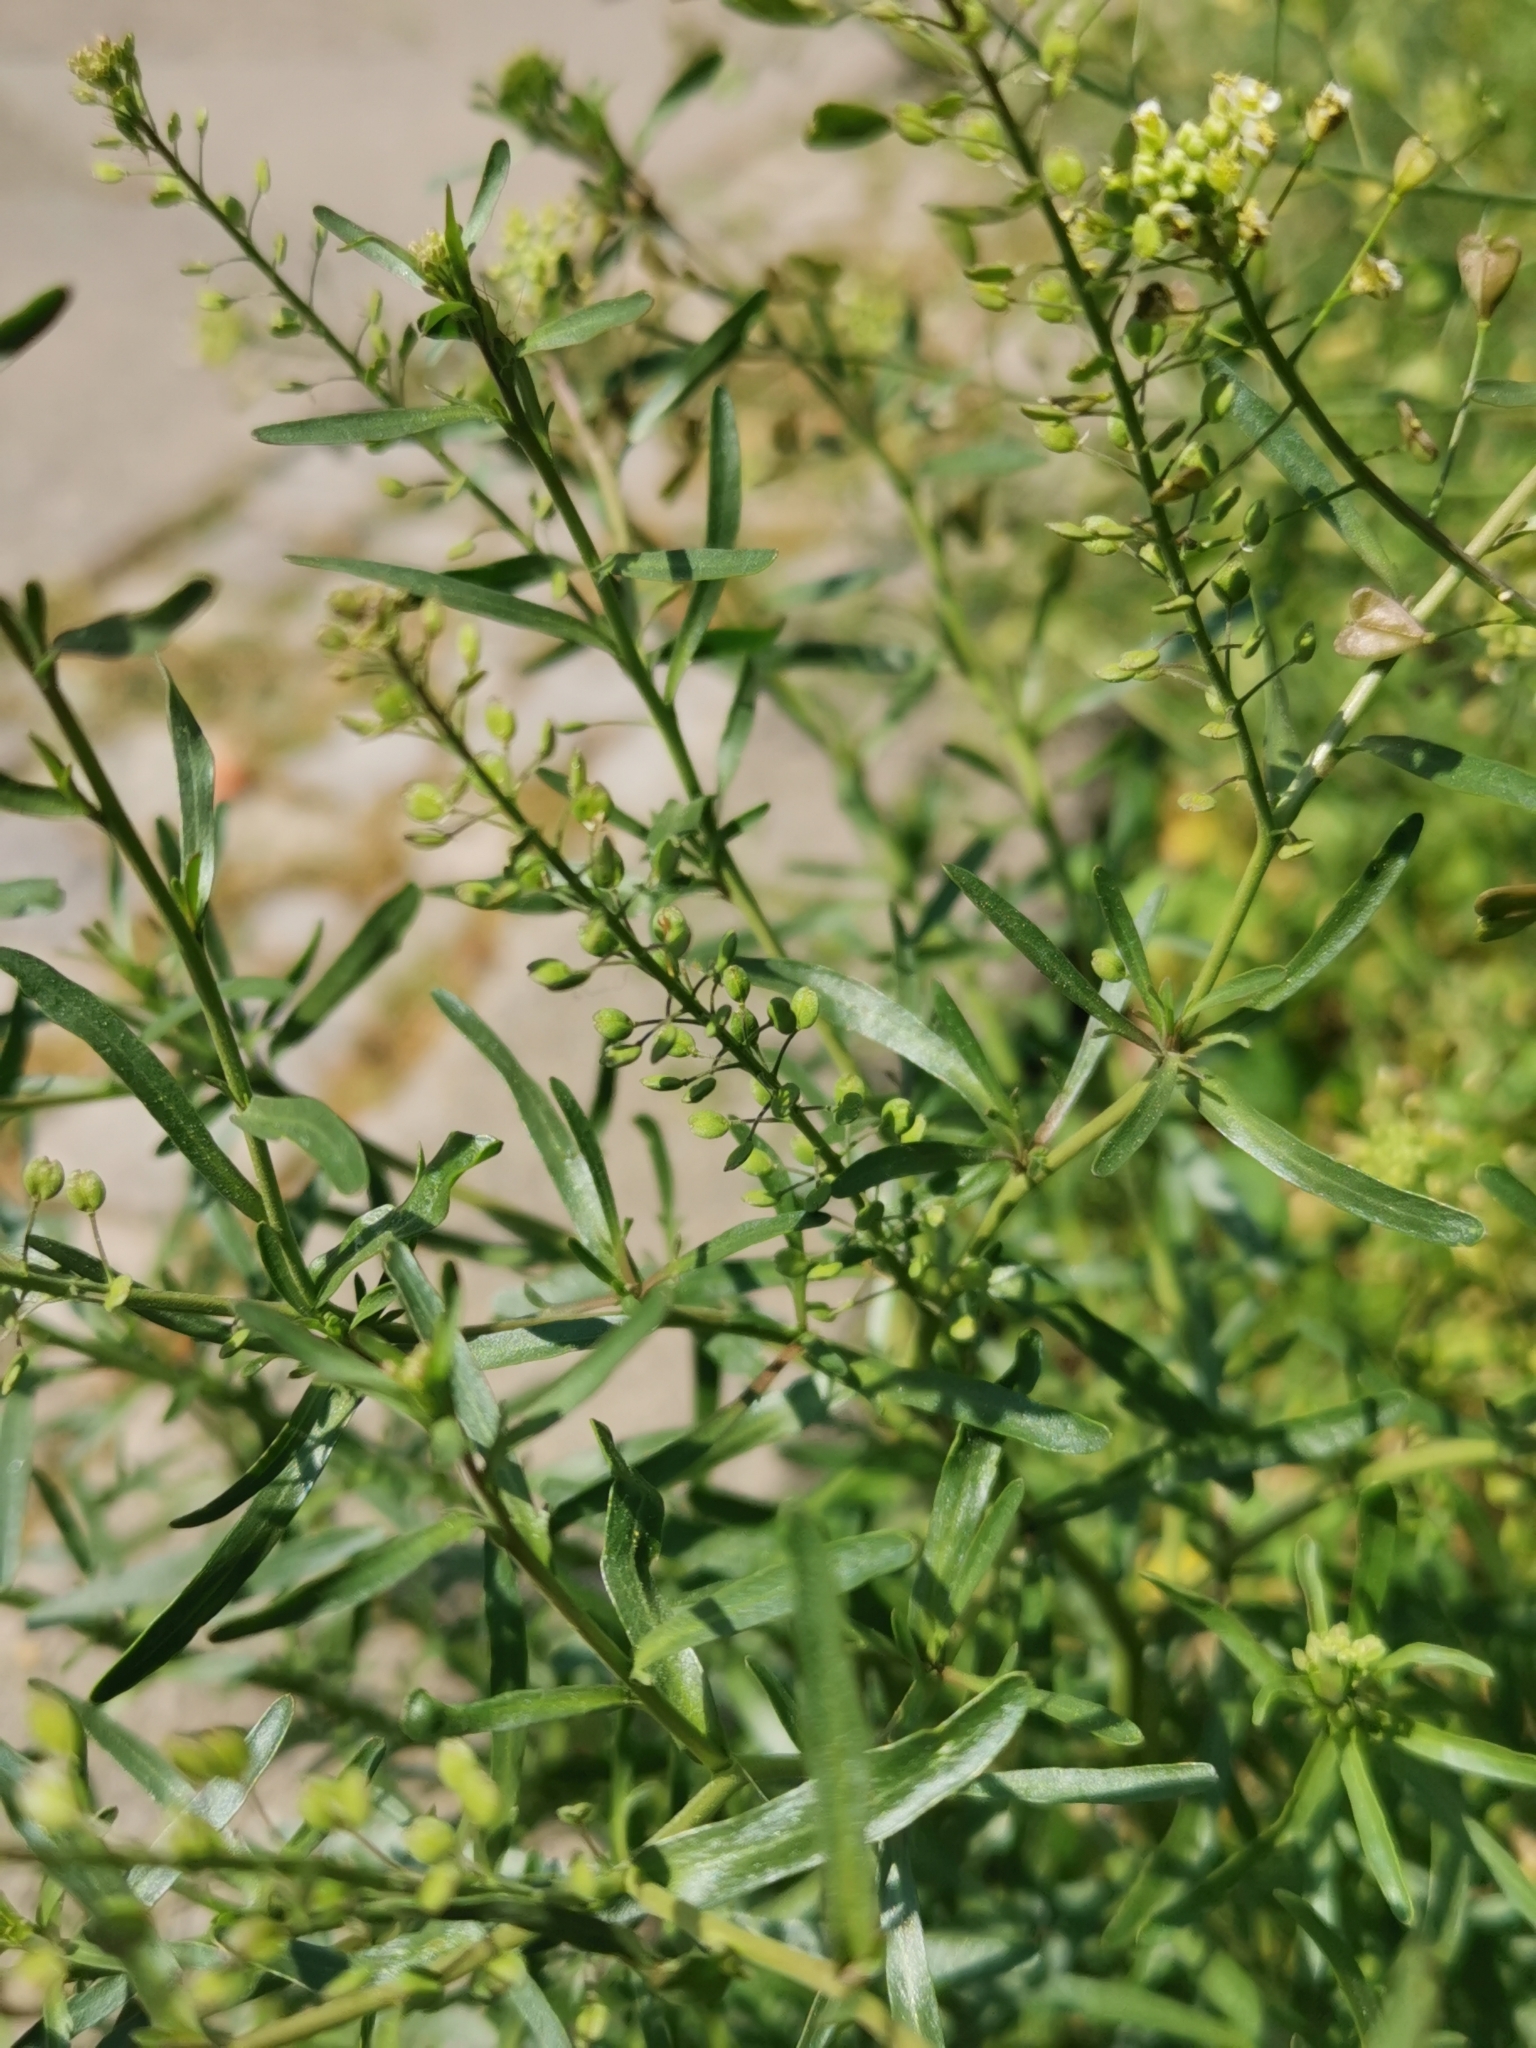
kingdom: Plantae
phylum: Tracheophyta
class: Magnoliopsida
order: Brassicales
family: Brassicaceae
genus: Lepidium
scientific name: Lepidium ruderale
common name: Narrow-leaved pepperwort
